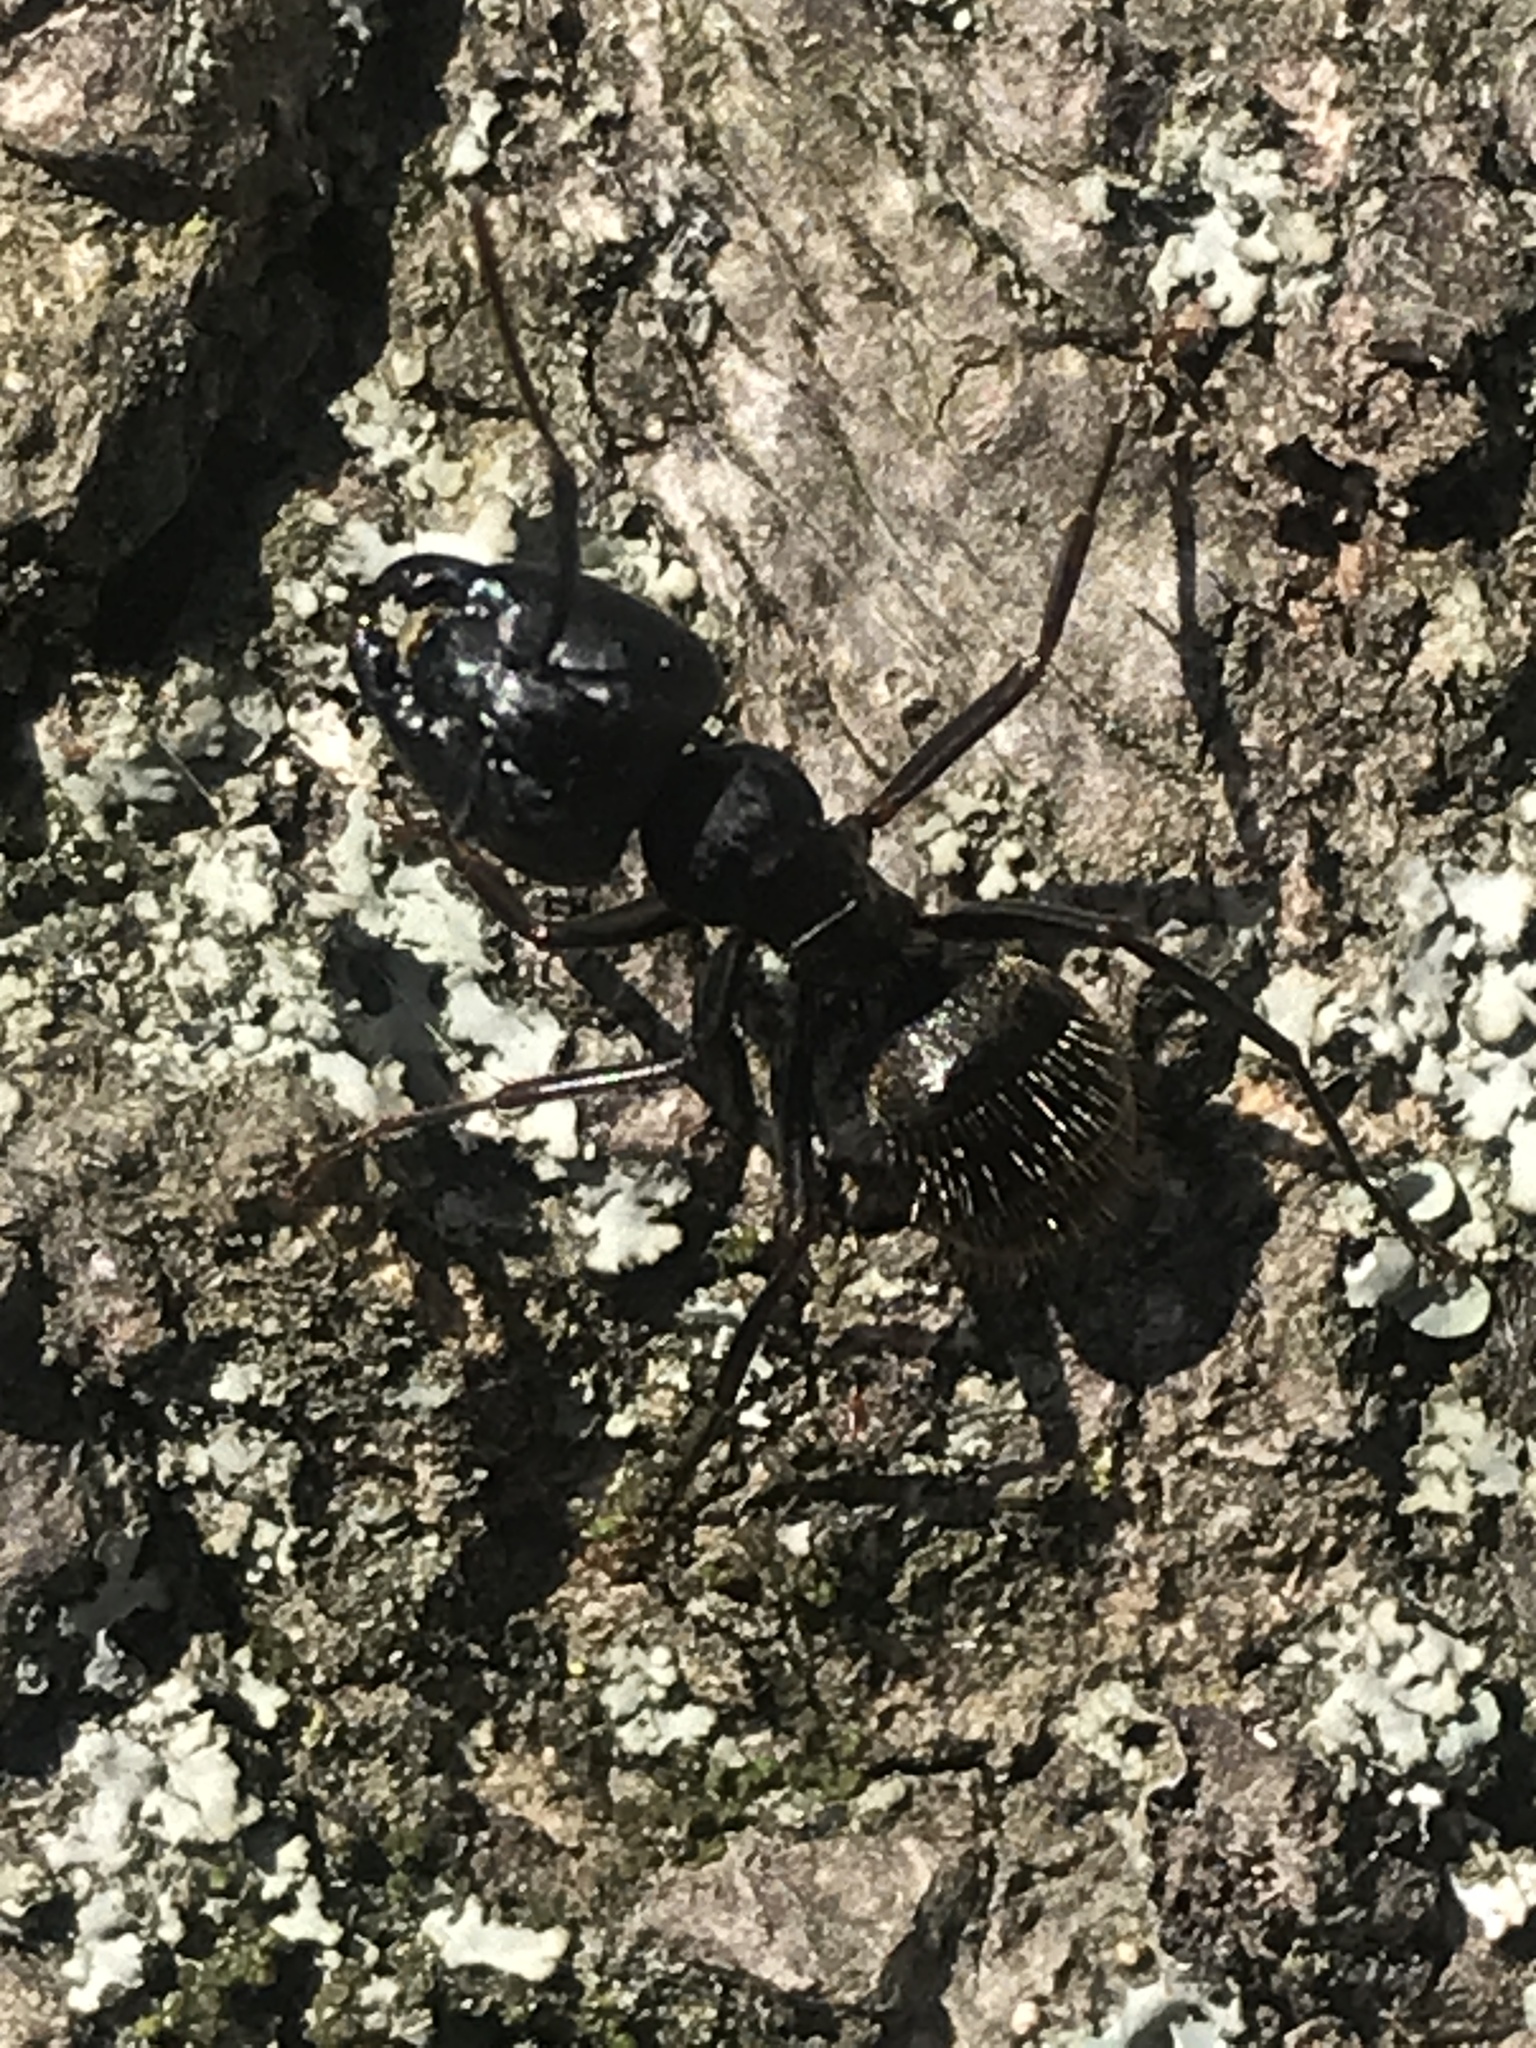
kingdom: Animalia
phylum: Arthropoda
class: Insecta
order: Hymenoptera
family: Formicidae
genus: Camponotus
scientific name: Camponotus pennsylvanicus
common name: Black carpenter ant
